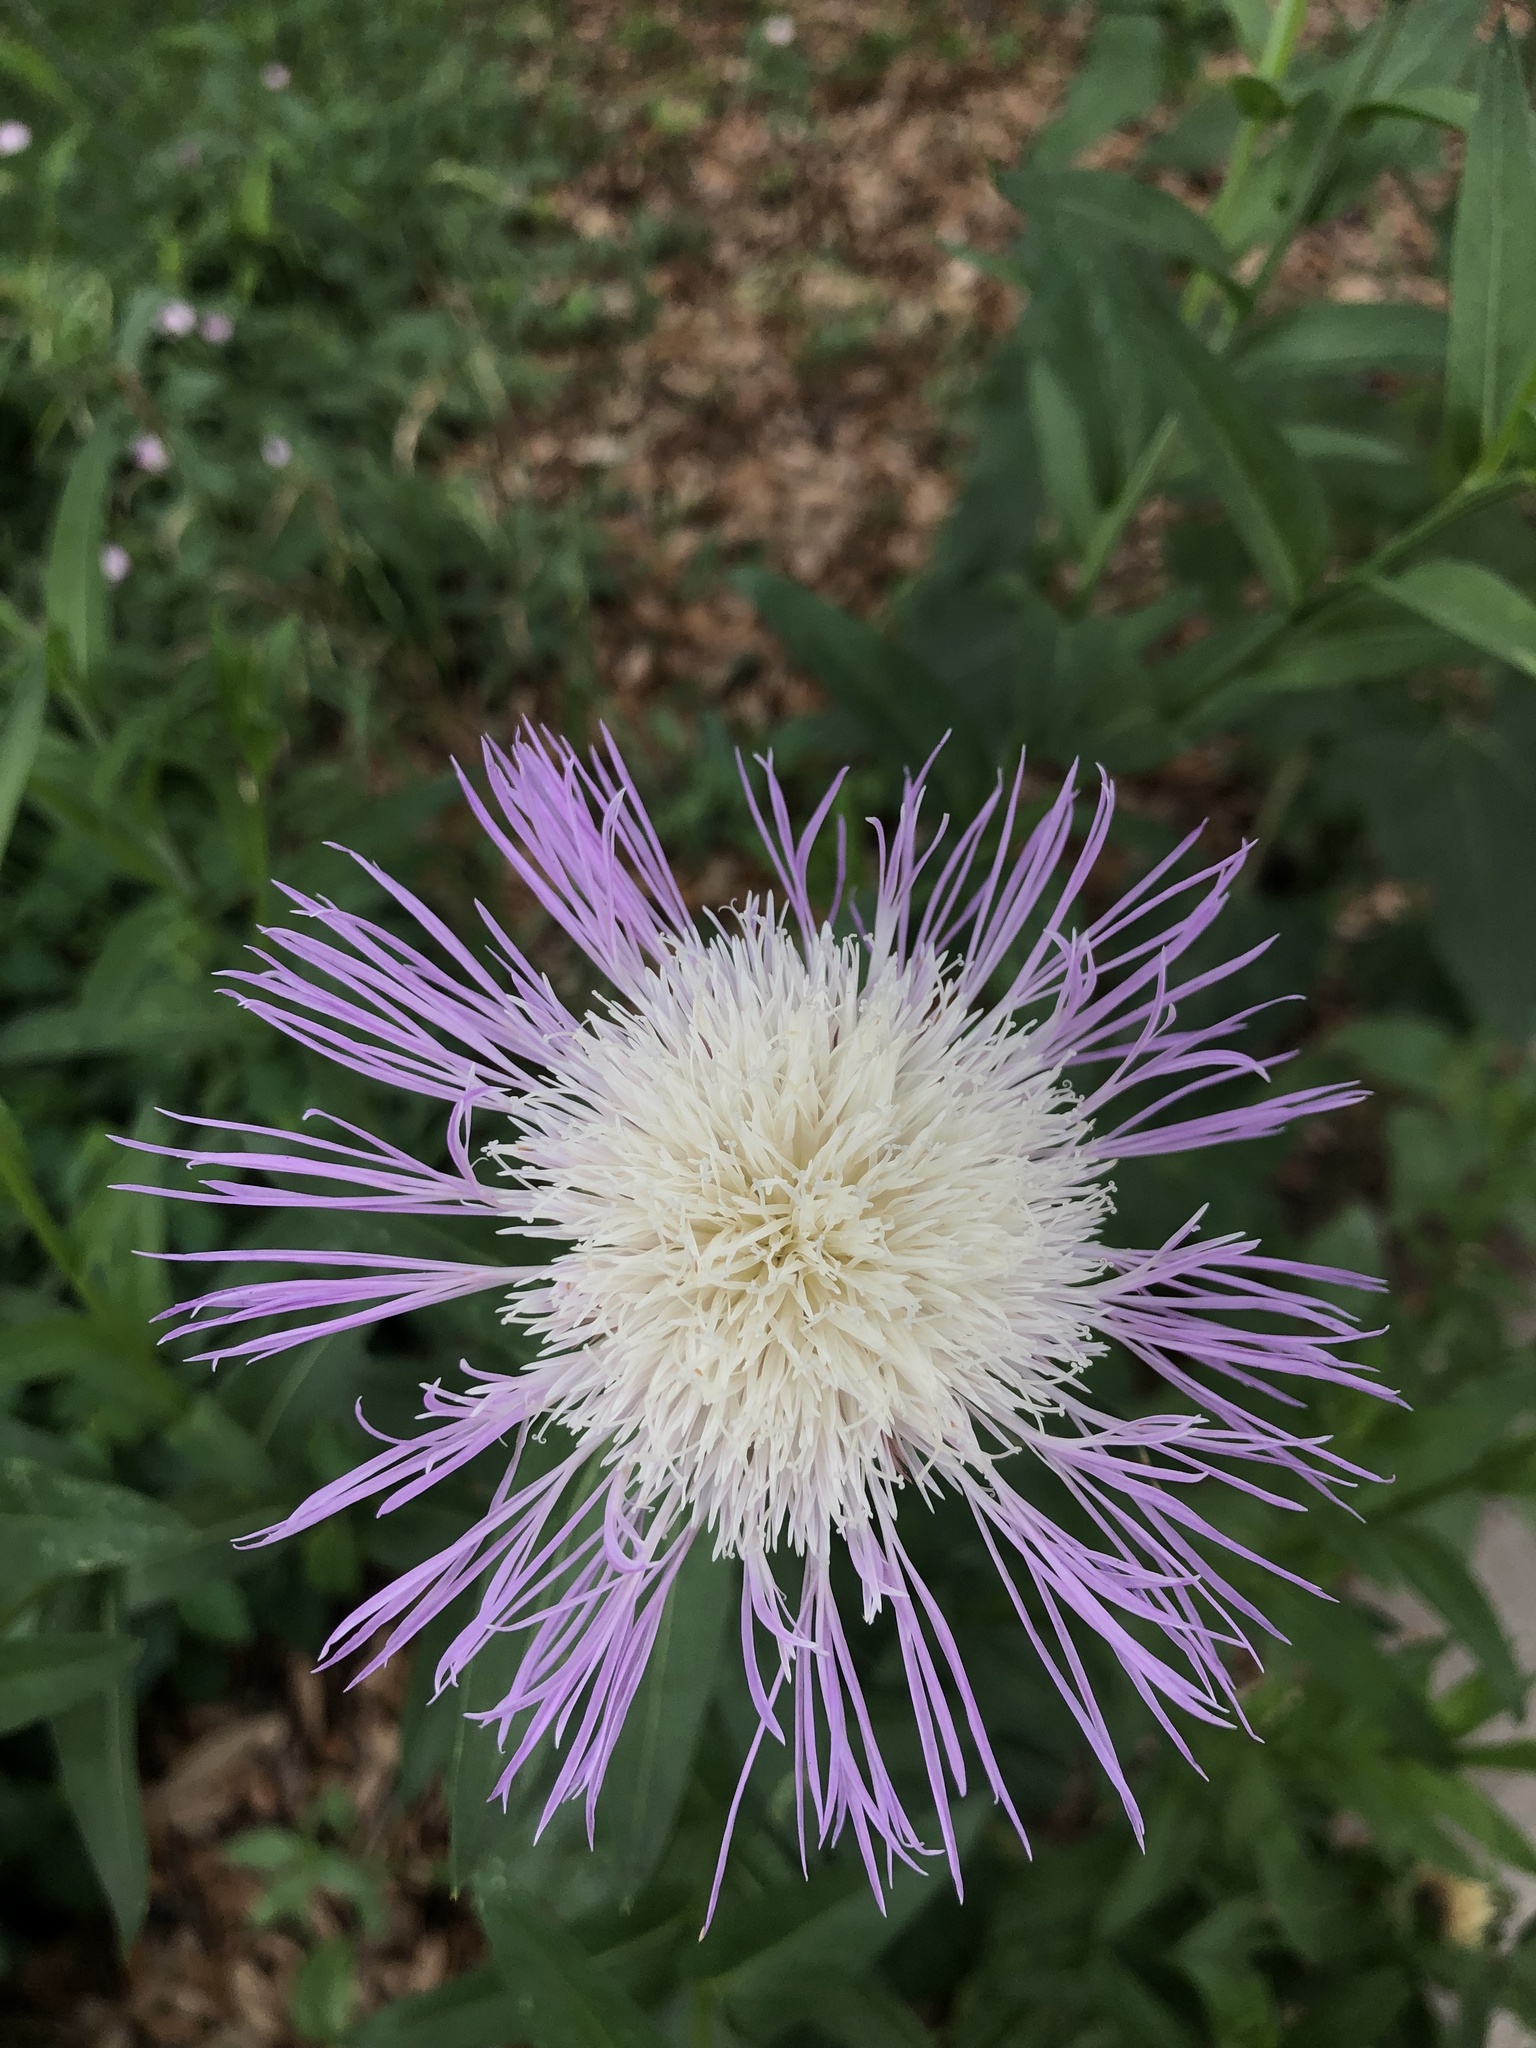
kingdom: Plantae
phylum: Tracheophyta
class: Magnoliopsida
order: Asterales
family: Asteraceae
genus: Plectocephalus
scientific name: Plectocephalus americanus
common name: American basket-flower
